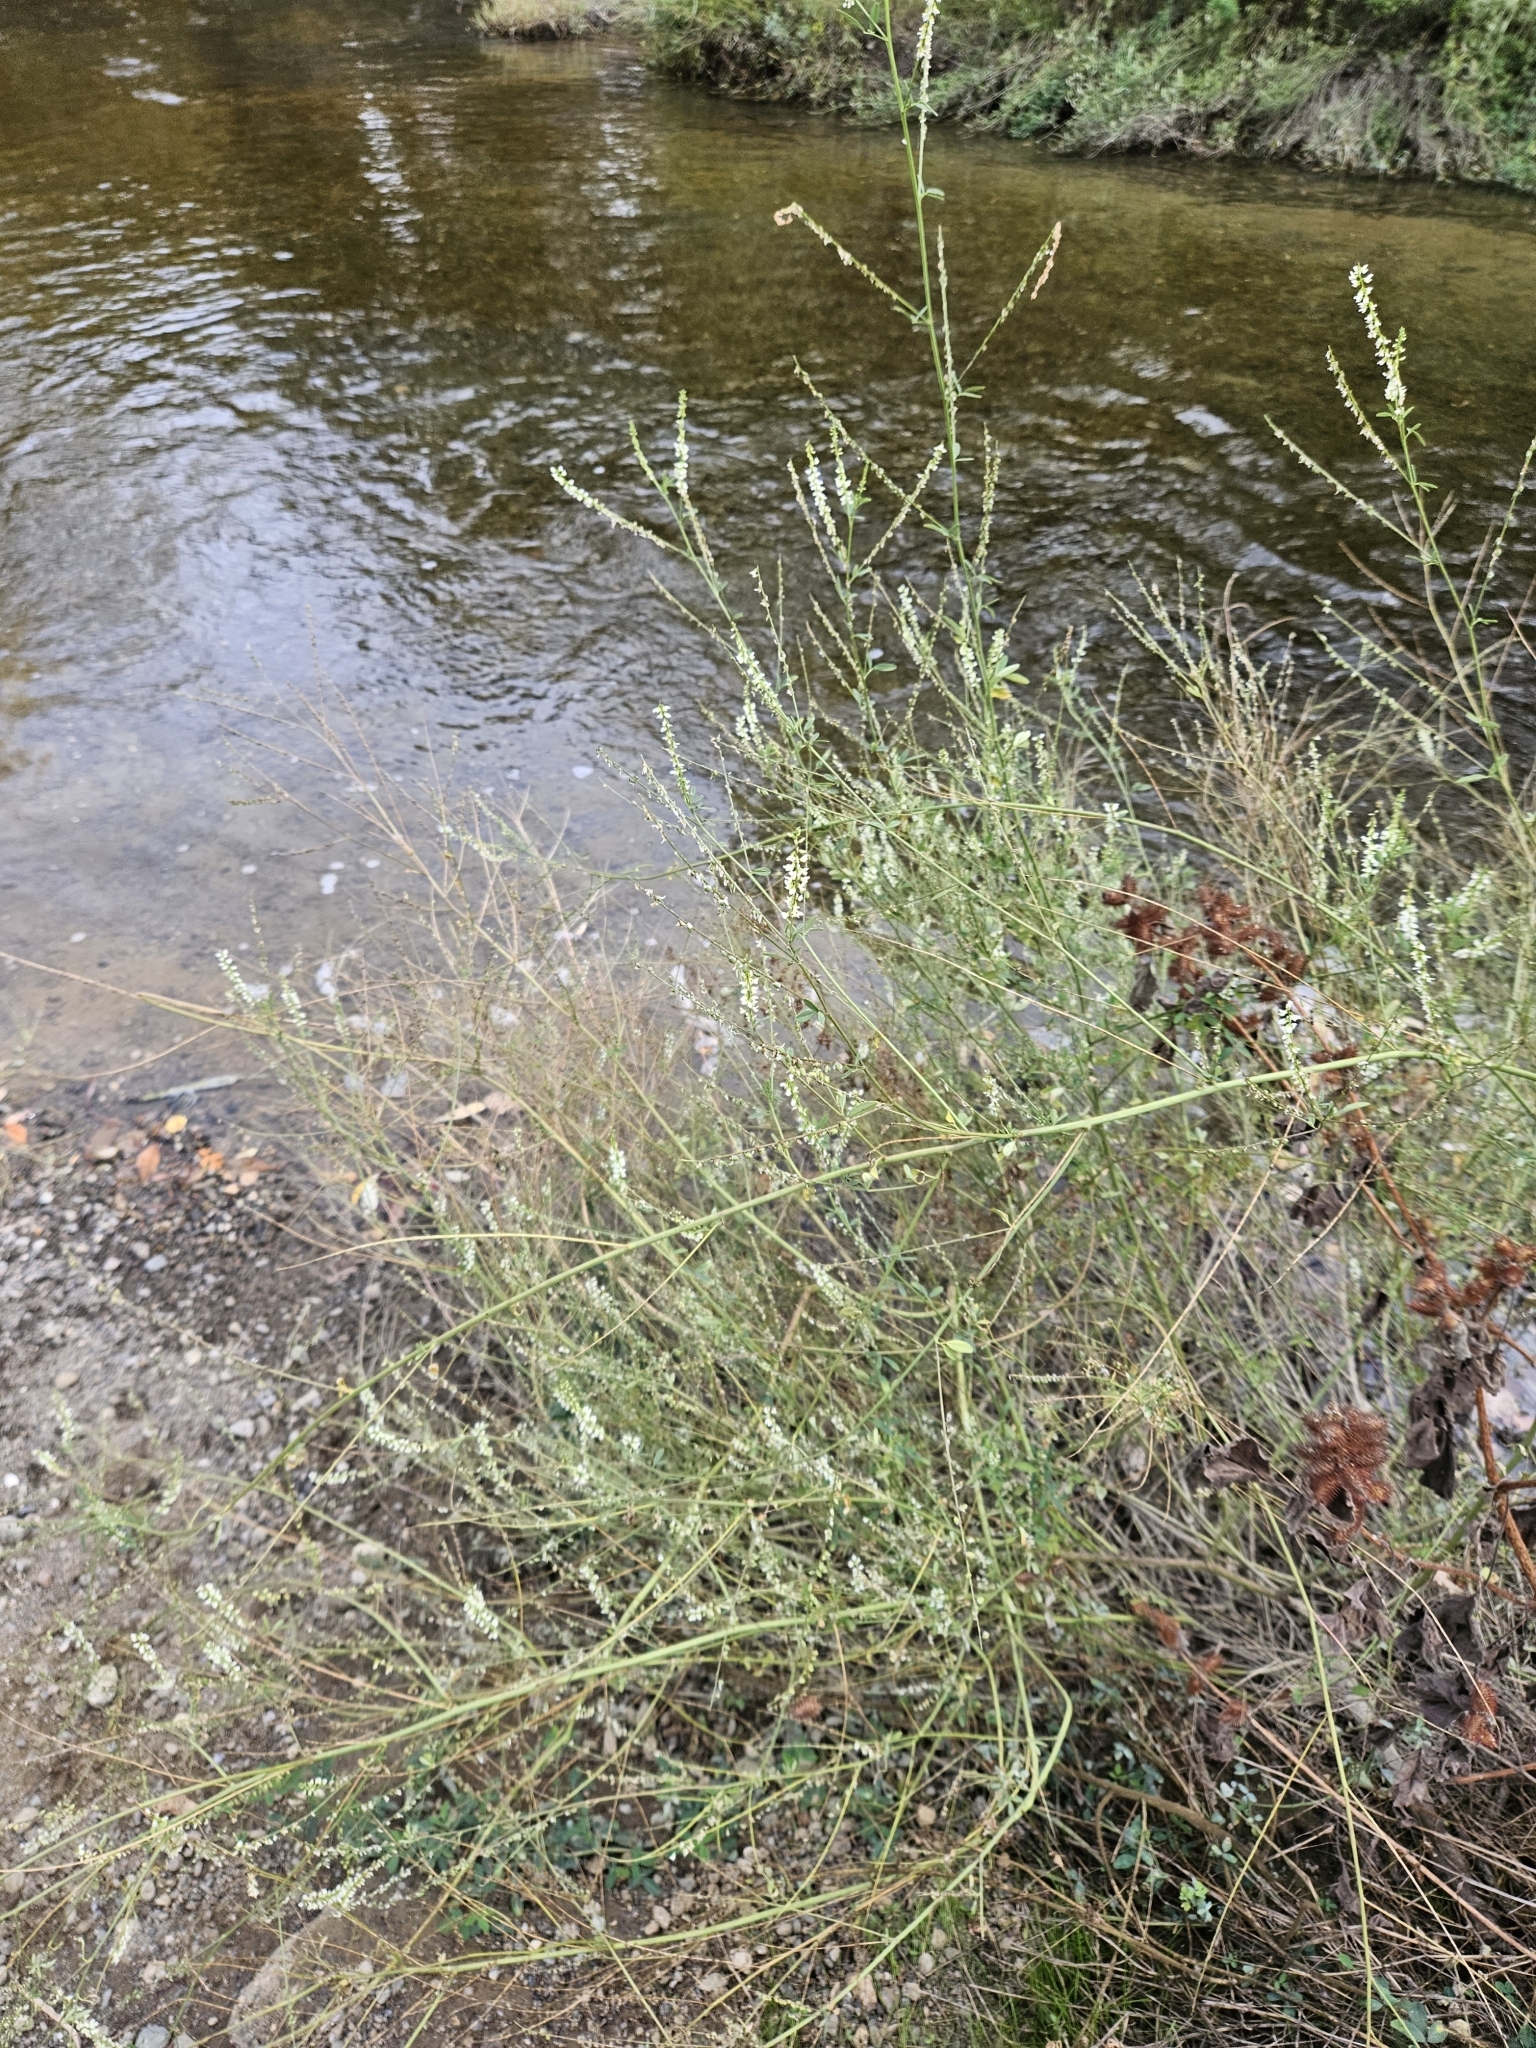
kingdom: Plantae
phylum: Tracheophyta
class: Magnoliopsida
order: Fabales
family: Fabaceae
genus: Melilotus
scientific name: Melilotus albus
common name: White melilot
